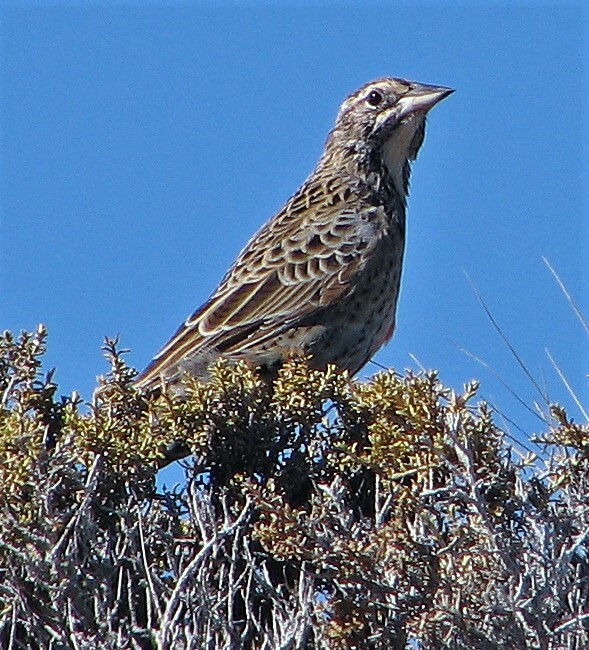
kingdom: Animalia
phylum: Chordata
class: Aves
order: Passeriformes
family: Icteridae
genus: Sturnella
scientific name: Sturnella loyca
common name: Long-tailed meadowlark
